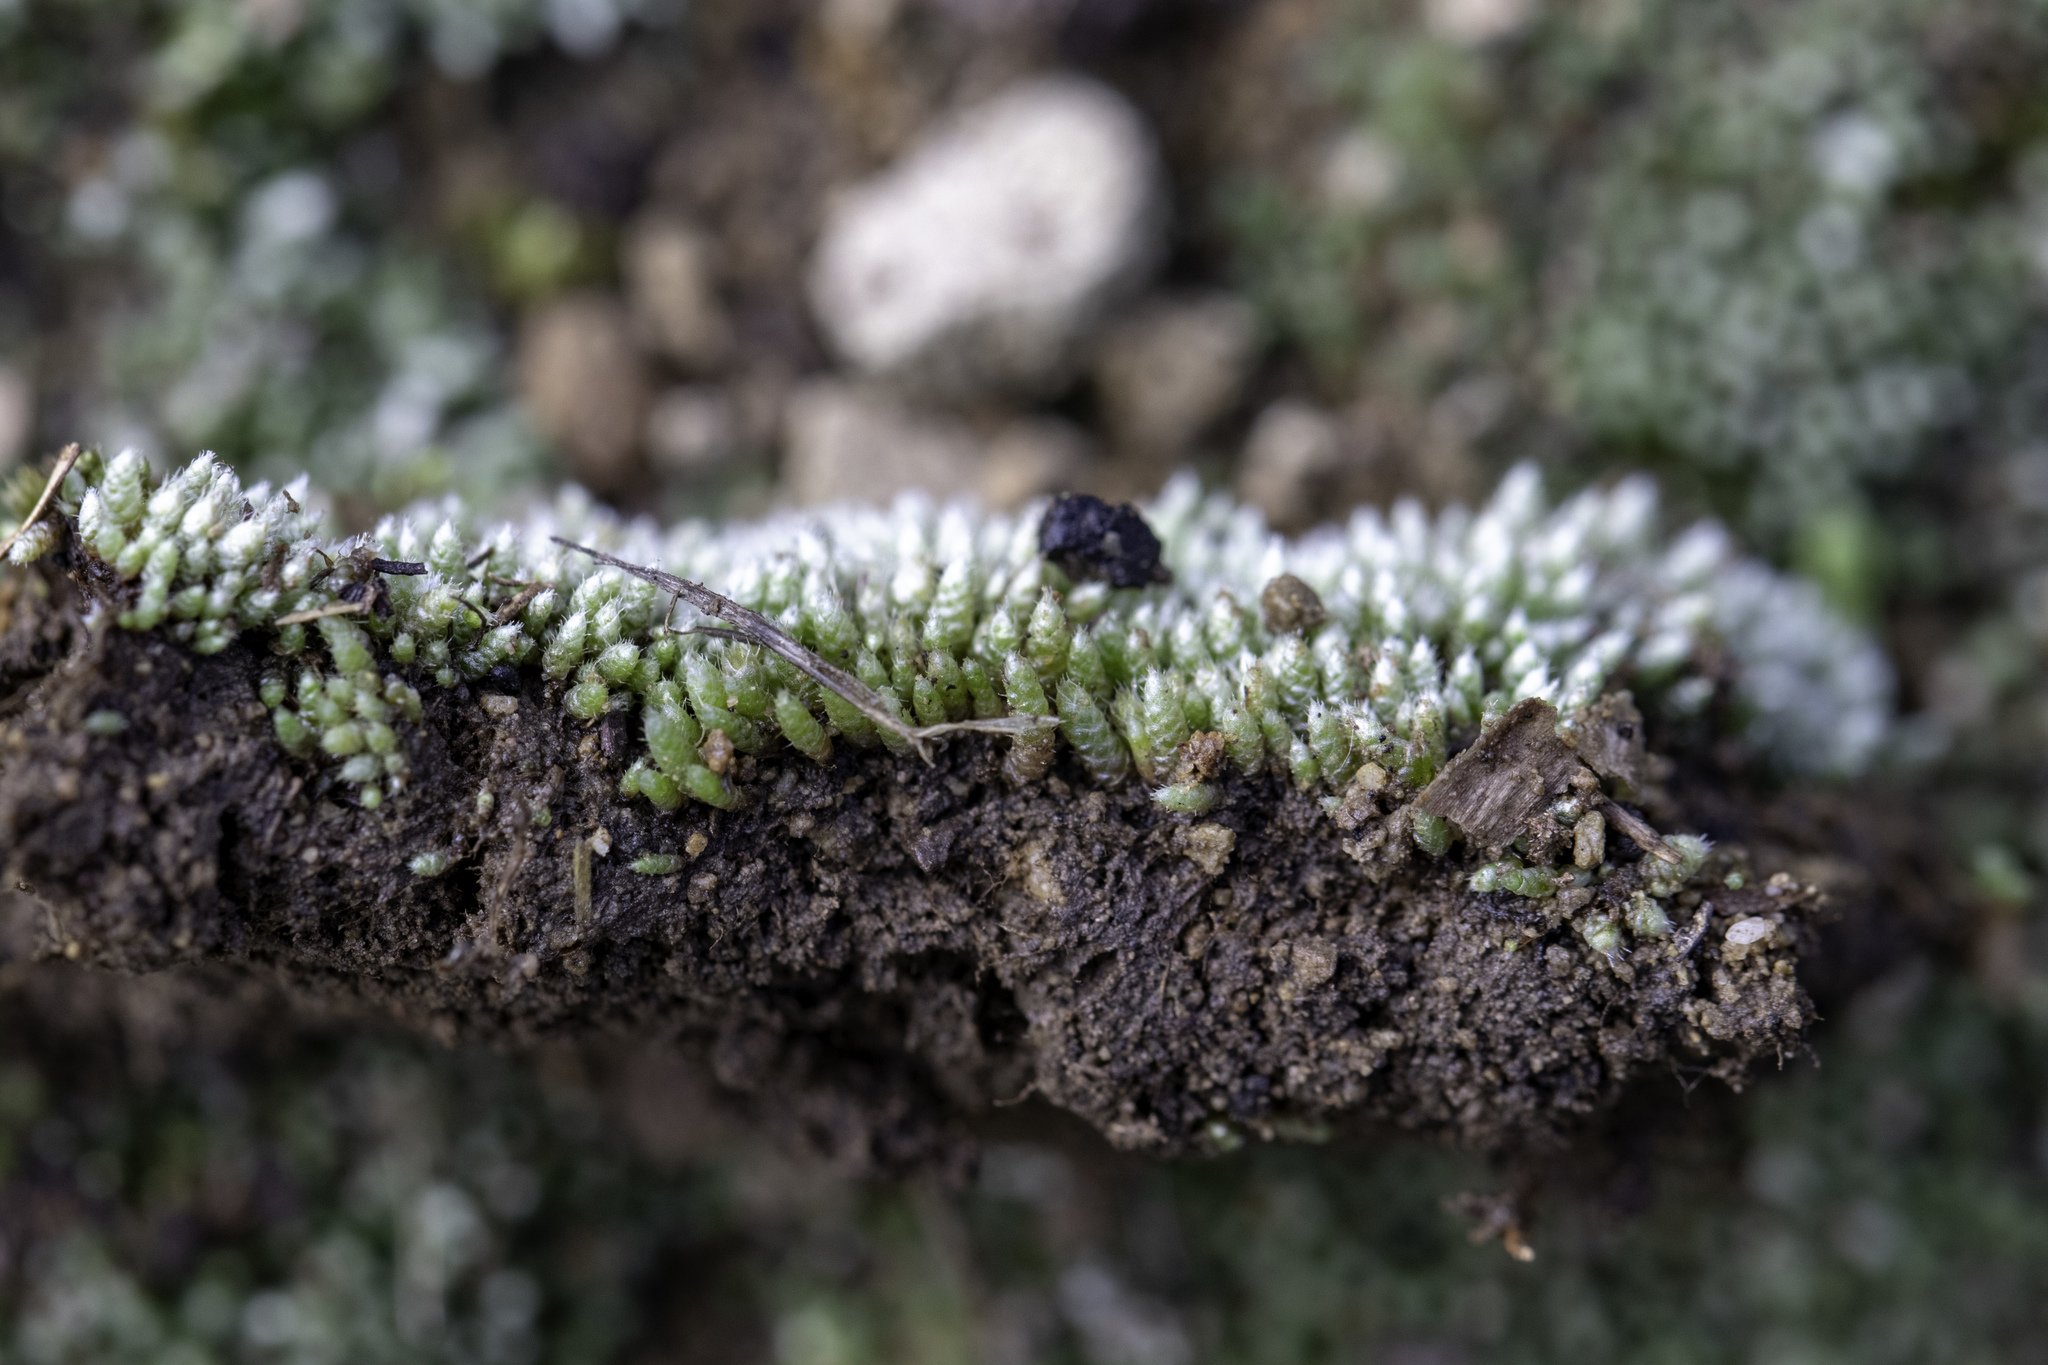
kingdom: Plantae
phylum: Bryophyta
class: Bryopsida
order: Bryales
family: Bryaceae
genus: Bryum
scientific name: Bryum argenteum
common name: Silver-moss
